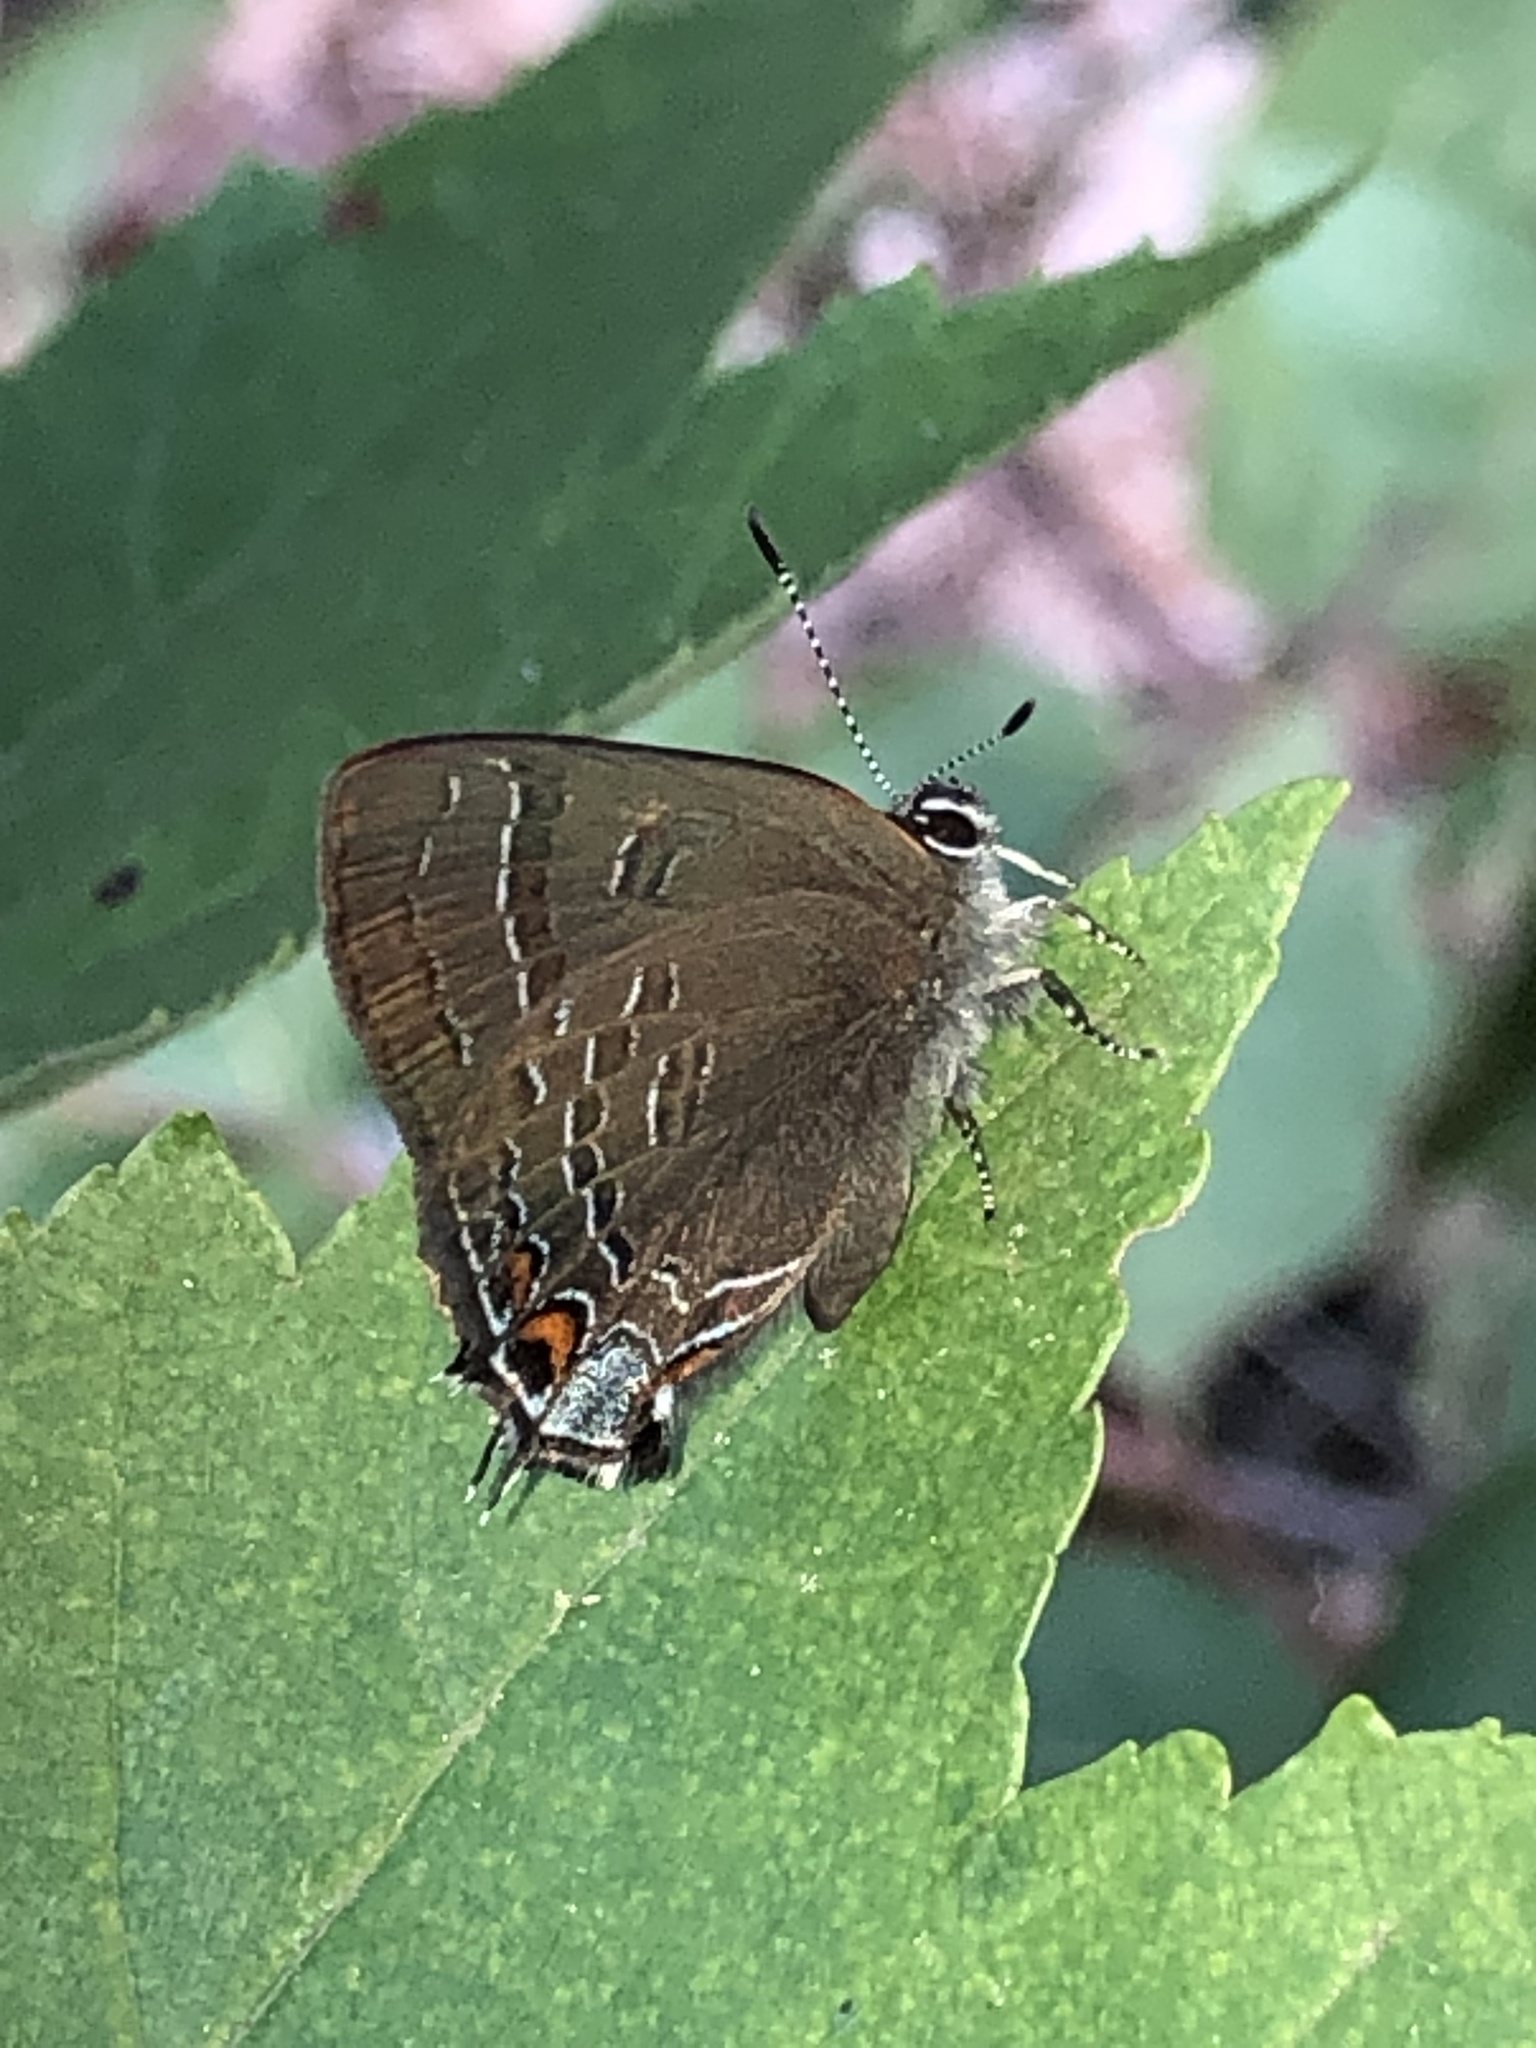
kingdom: Animalia
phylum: Arthropoda
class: Insecta
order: Lepidoptera
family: Lycaenidae
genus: Satyrium
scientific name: Satyrium calanus
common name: Banded hairstreak
